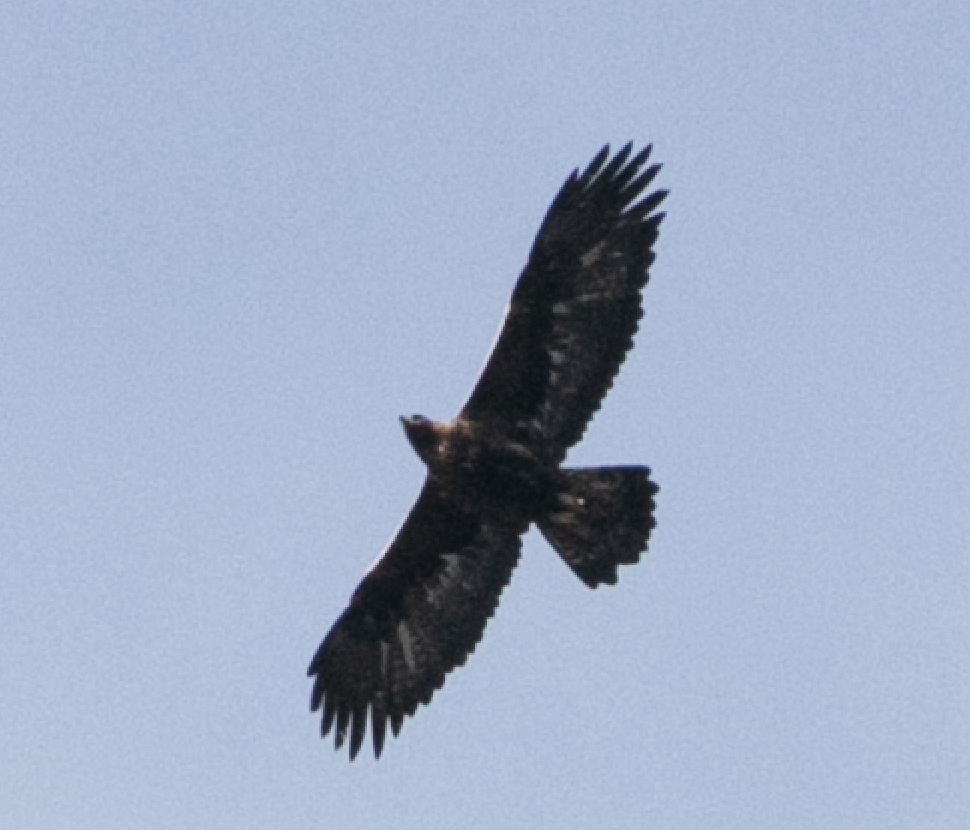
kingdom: Animalia
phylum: Chordata
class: Aves
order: Accipitriformes
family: Accipitridae
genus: Aquila
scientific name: Aquila chrysaetos
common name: Golden eagle
